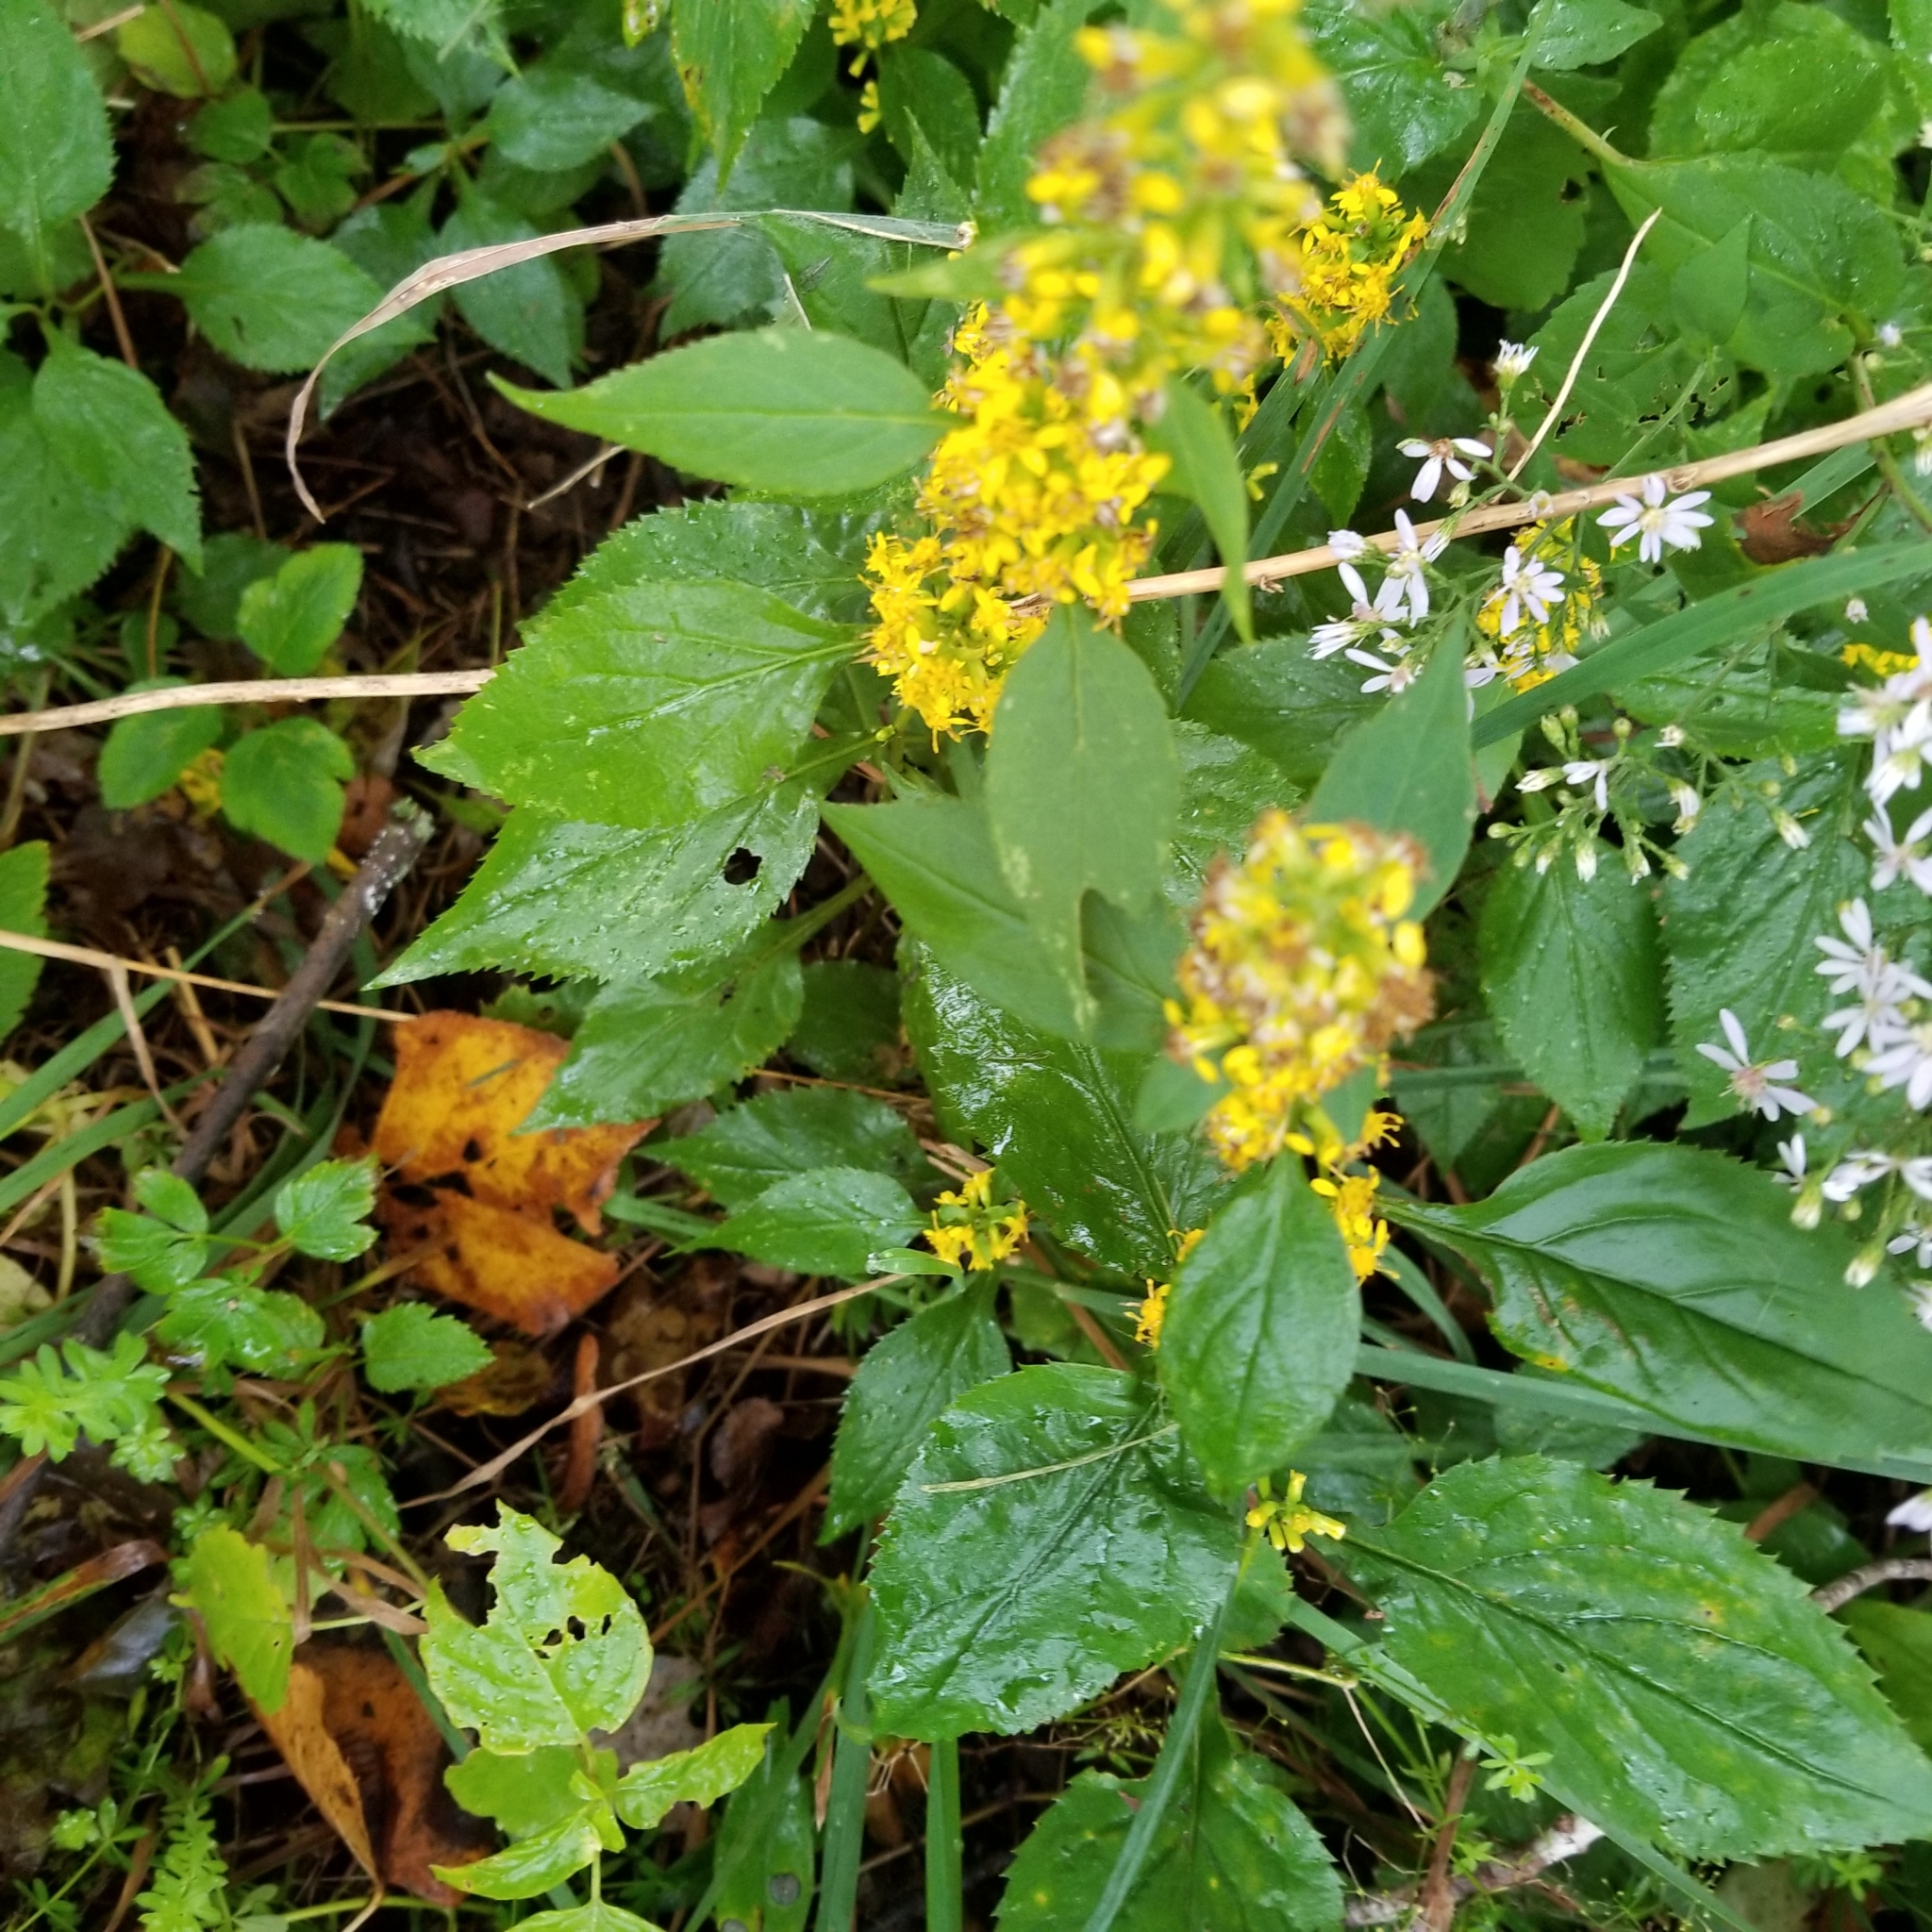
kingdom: Plantae
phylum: Tracheophyta
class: Magnoliopsida
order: Asterales
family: Asteraceae
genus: Solidago
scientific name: Solidago flexicaulis
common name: Zig-zag goldenrod
